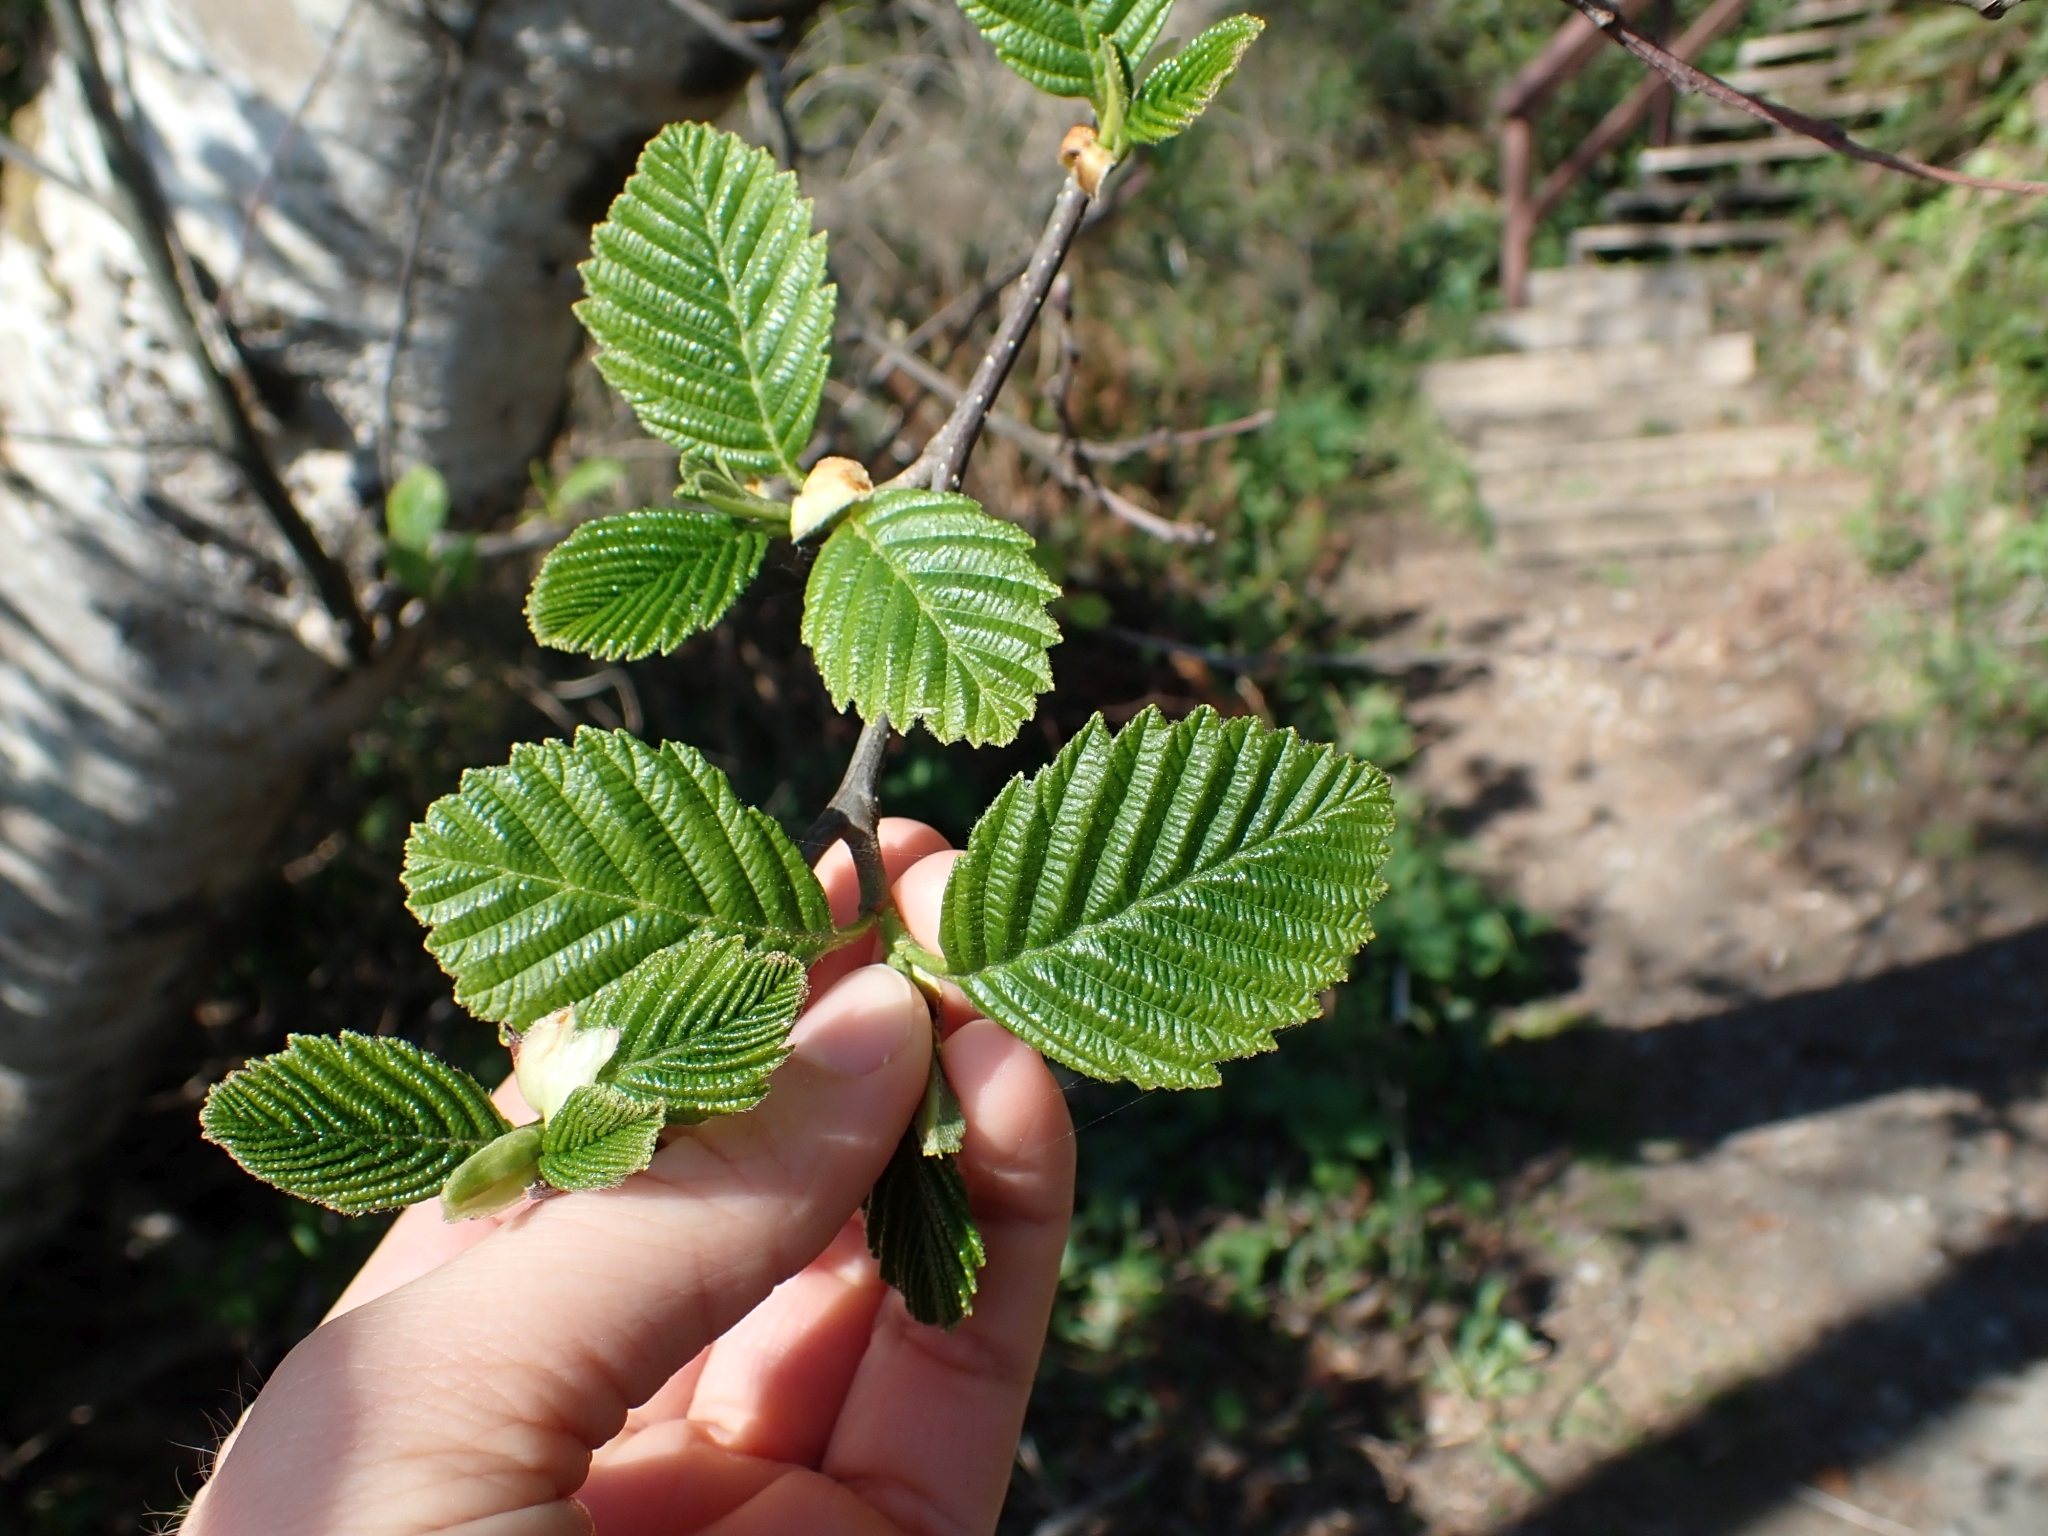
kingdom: Plantae
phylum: Tracheophyta
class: Magnoliopsida
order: Fagales
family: Betulaceae
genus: Alnus
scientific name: Alnus rubra
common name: Red alder
